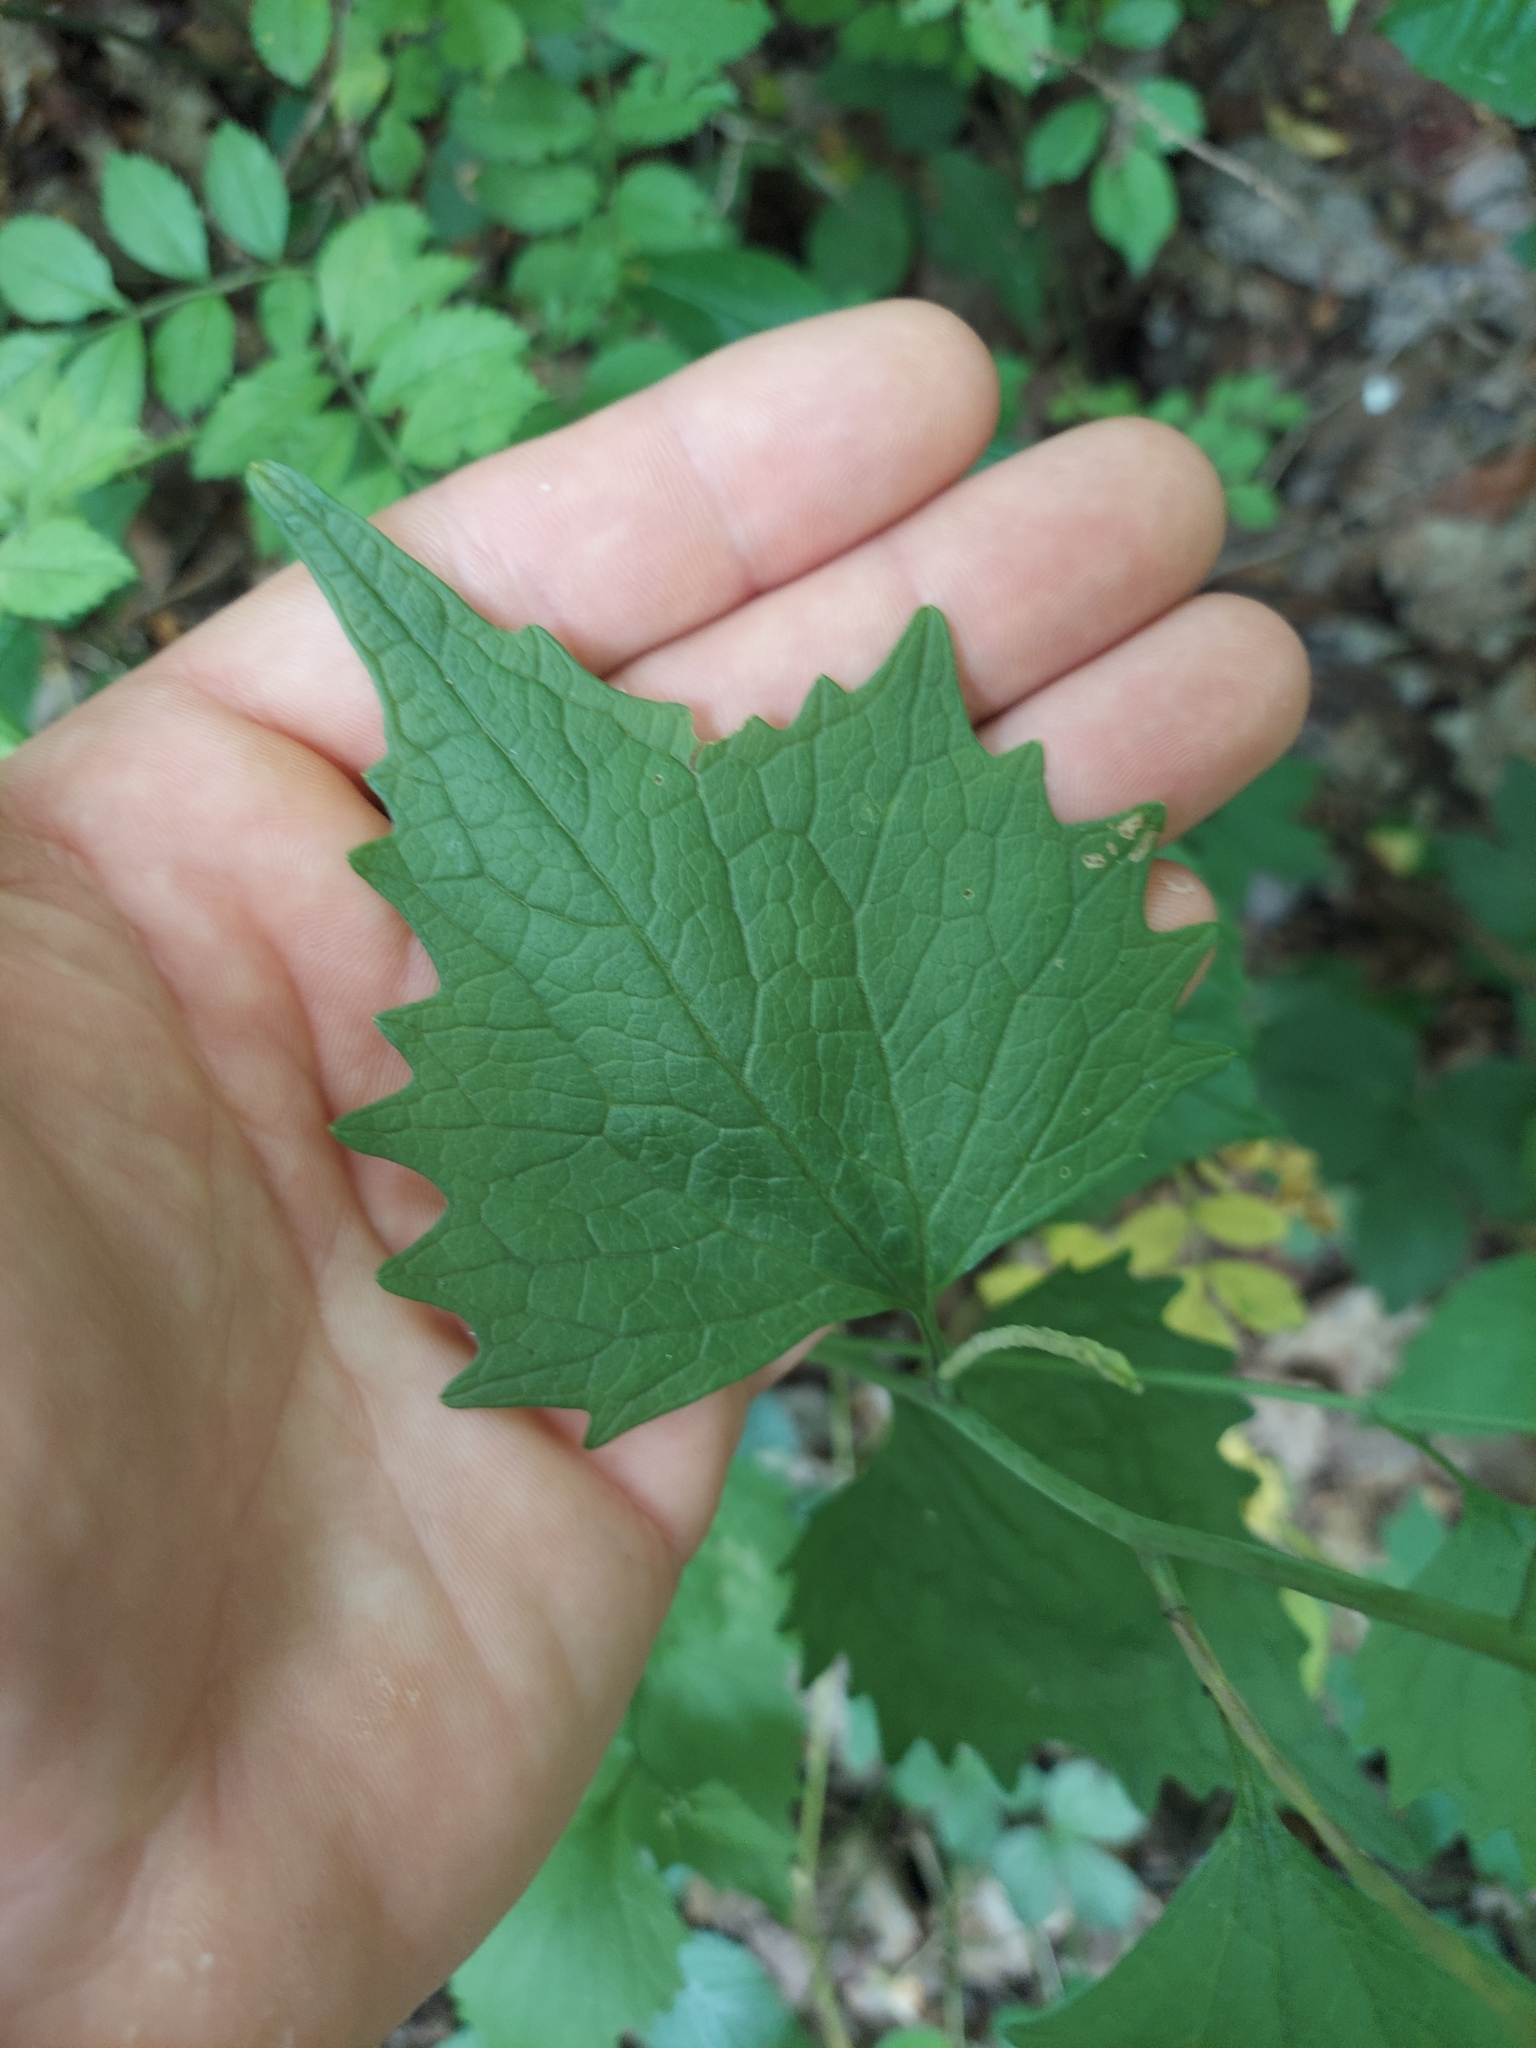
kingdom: Plantae
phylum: Tracheophyta
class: Magnoliopsida
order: Brassicales
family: Brassicaceae
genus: Alliaria
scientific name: Alliaria petiolata
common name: Garlic mustard
